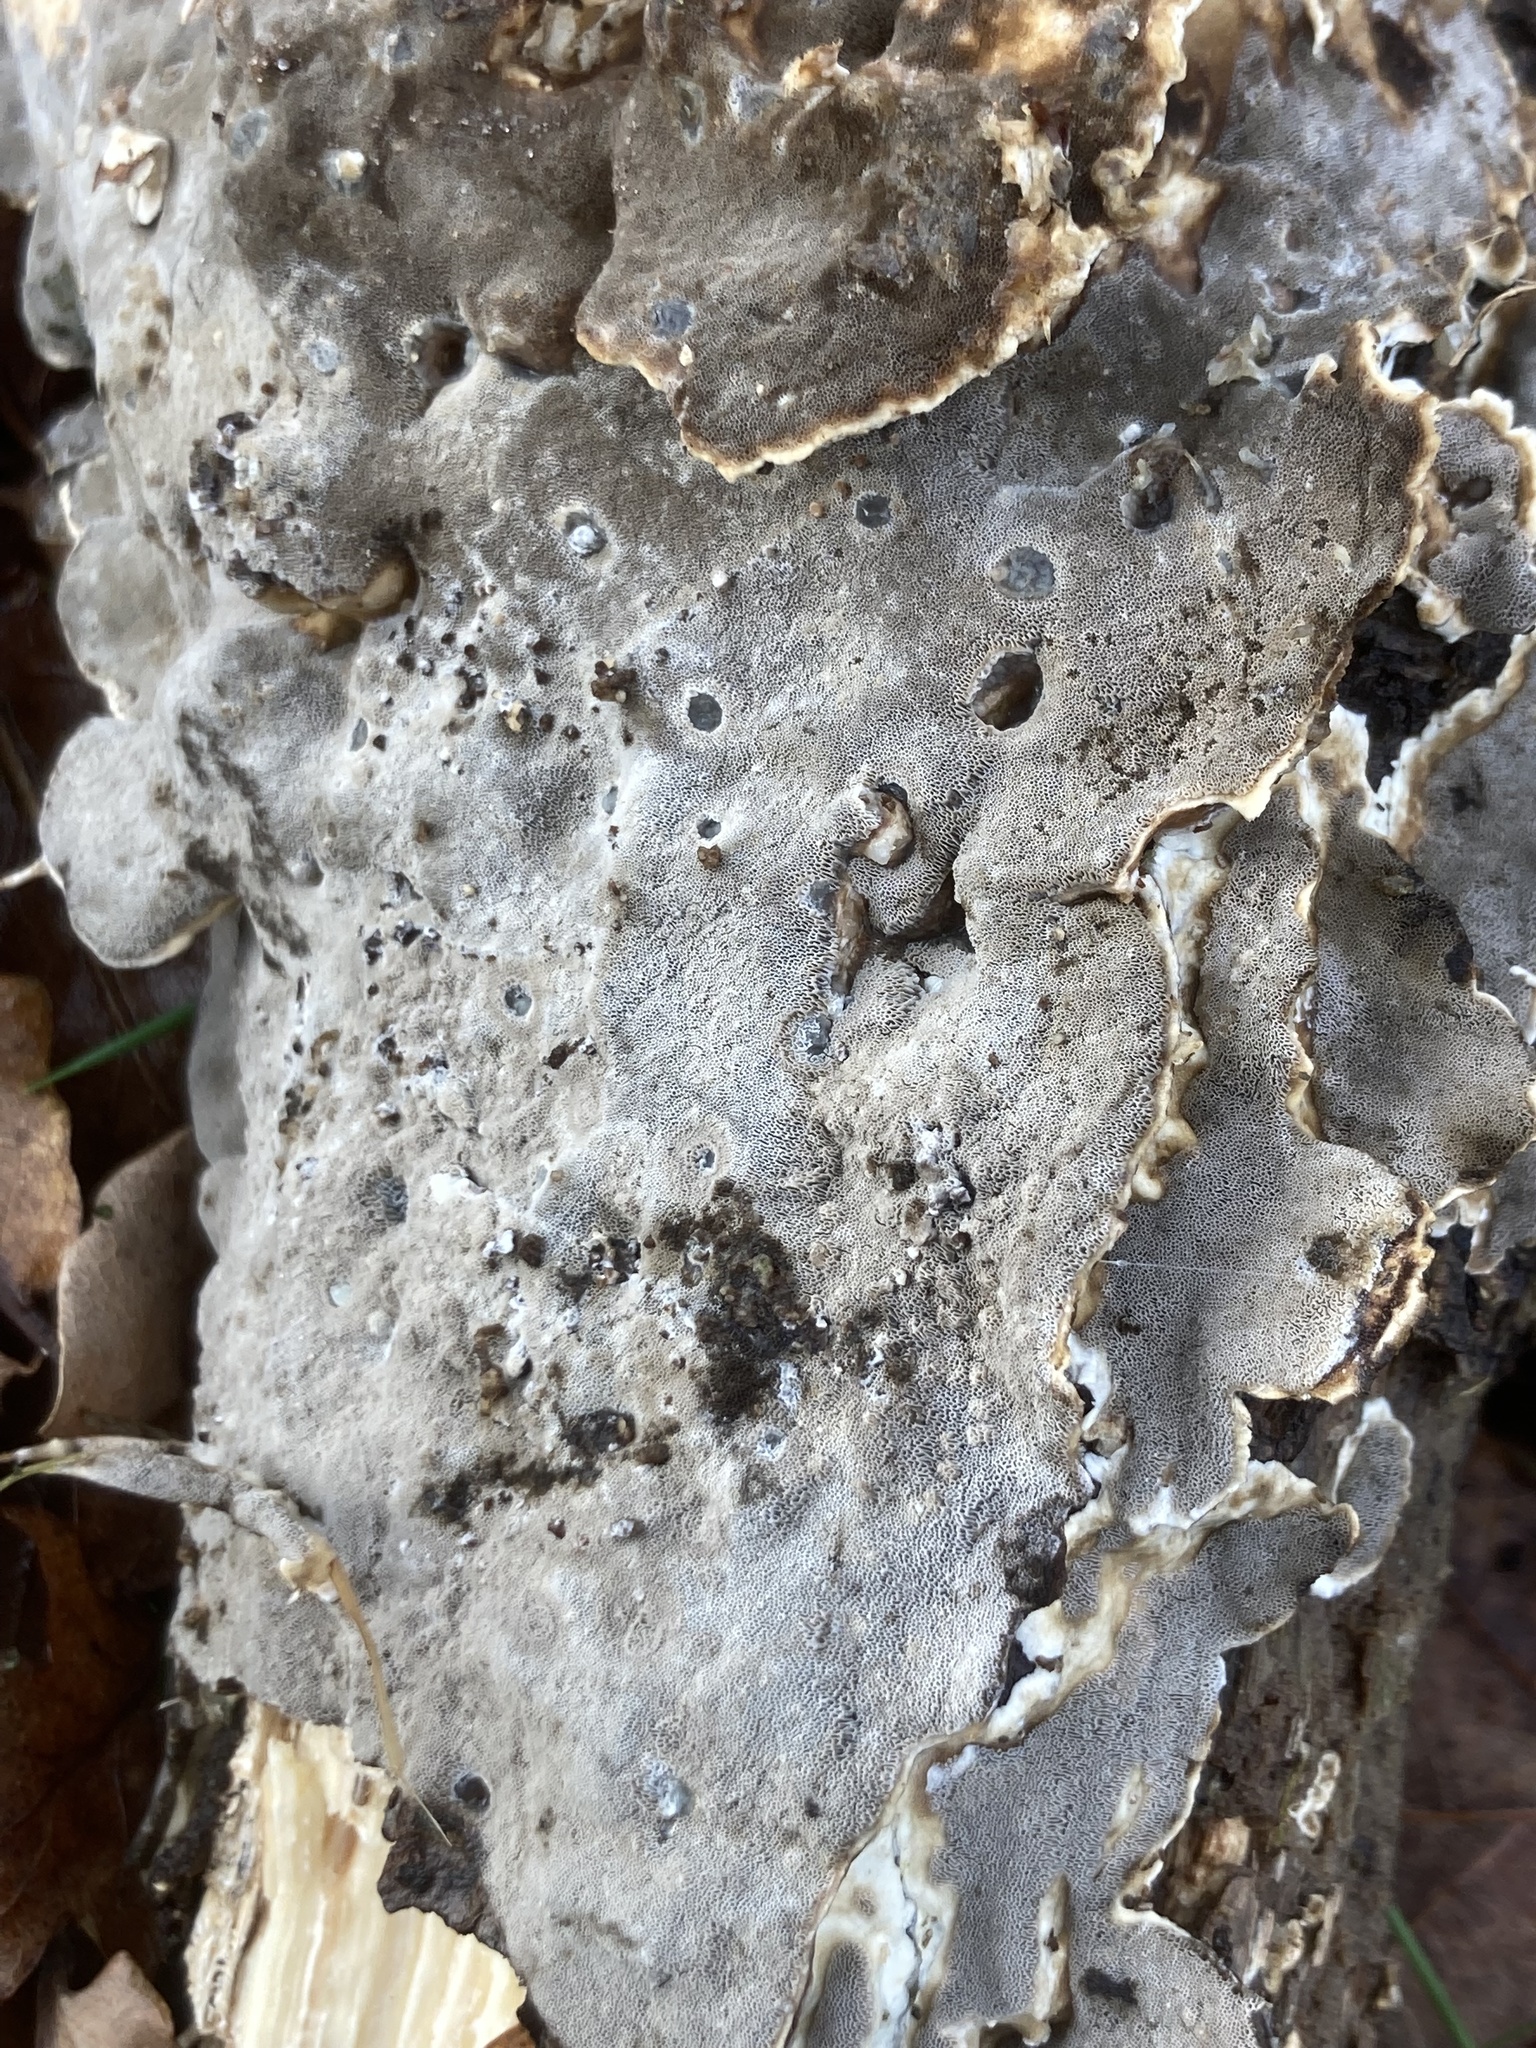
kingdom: Fungi
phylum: Basidiomycota
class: Agaricomycetes
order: Polyporales
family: Phanerochaetaceae
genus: Bjerkandera
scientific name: Bjerkandera adusta
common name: Smoky bracket
